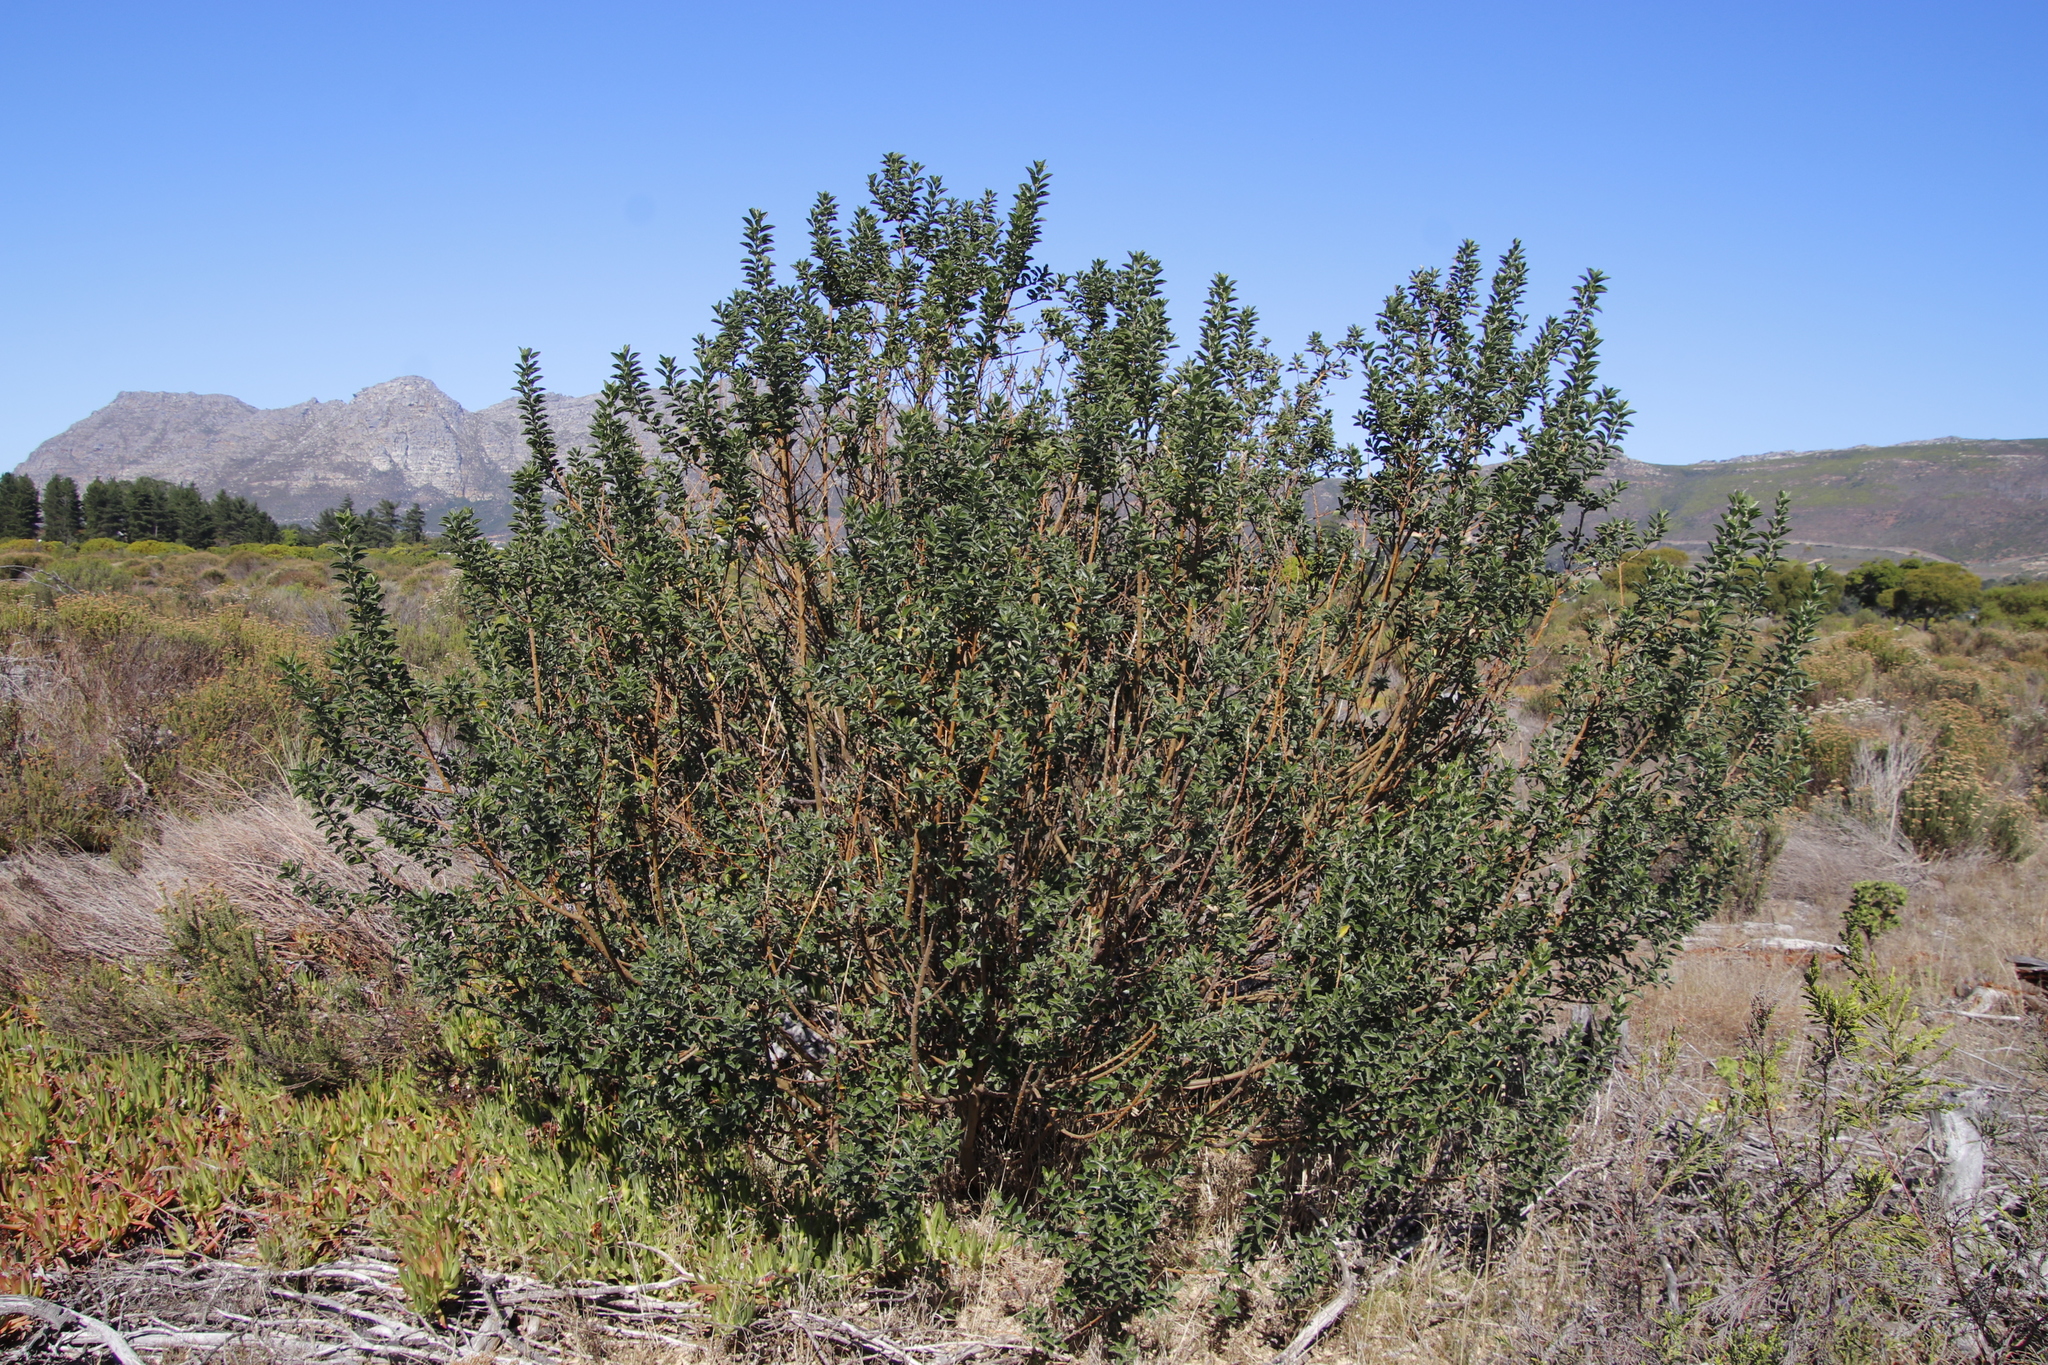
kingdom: Plantae
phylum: Tracheophyta
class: Magnoliopsida
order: Fabales
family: Fabaceae
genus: Podalyria
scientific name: Podalyria calyptrata
